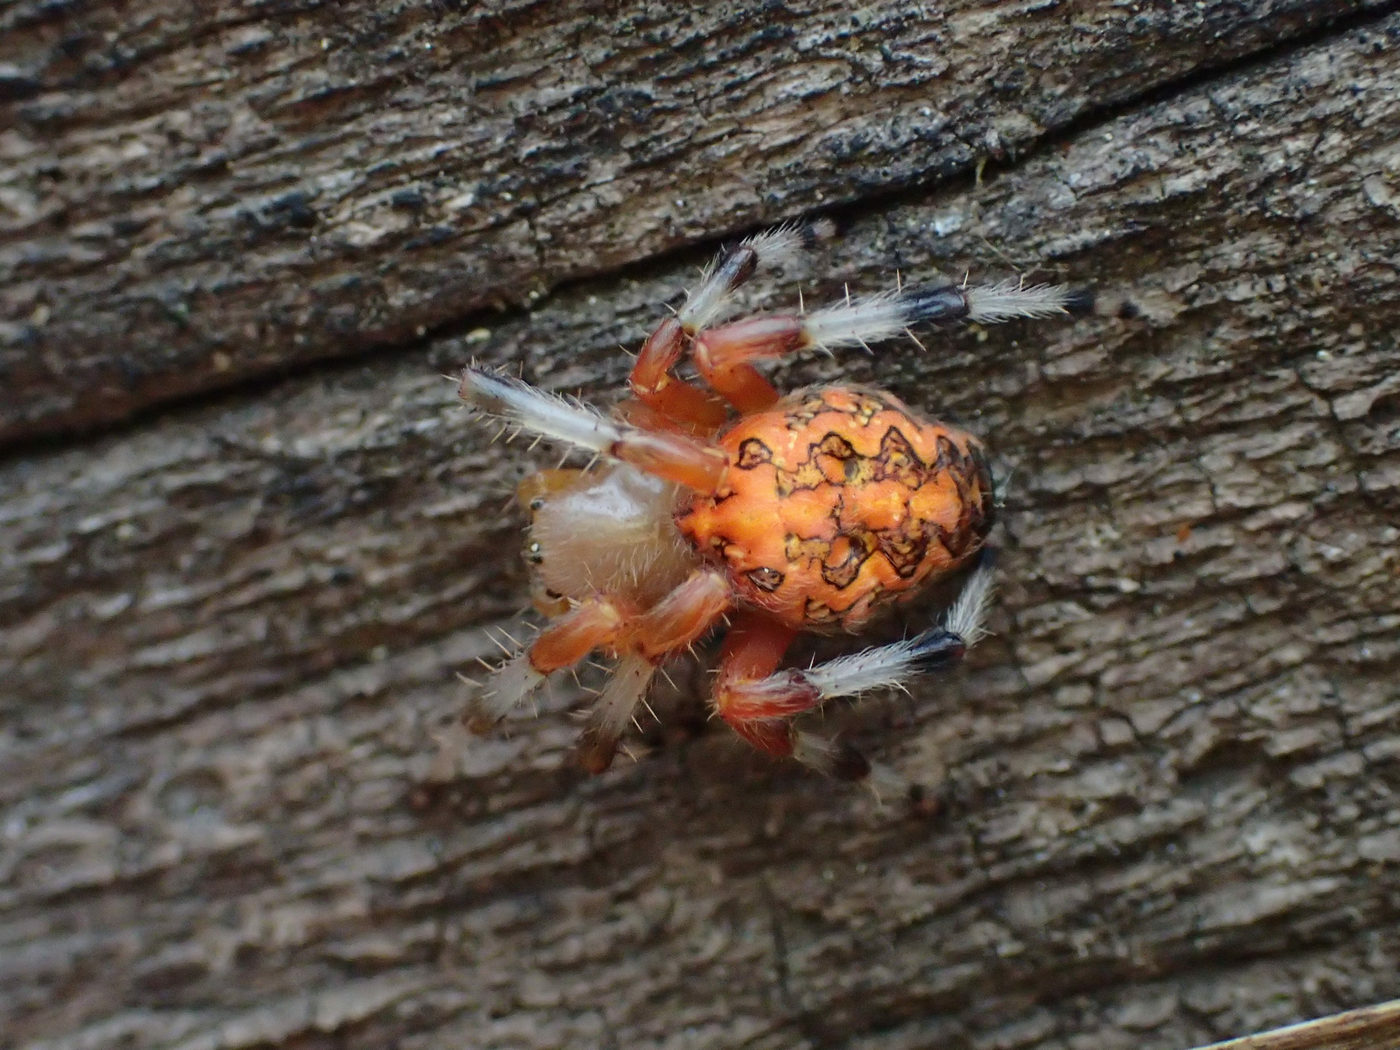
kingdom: Animalia
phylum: Arthropoda
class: Arachnida
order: Araneae
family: Araneidae
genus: Araneus
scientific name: Araneus marmoreus
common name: Marbled orbweaver
